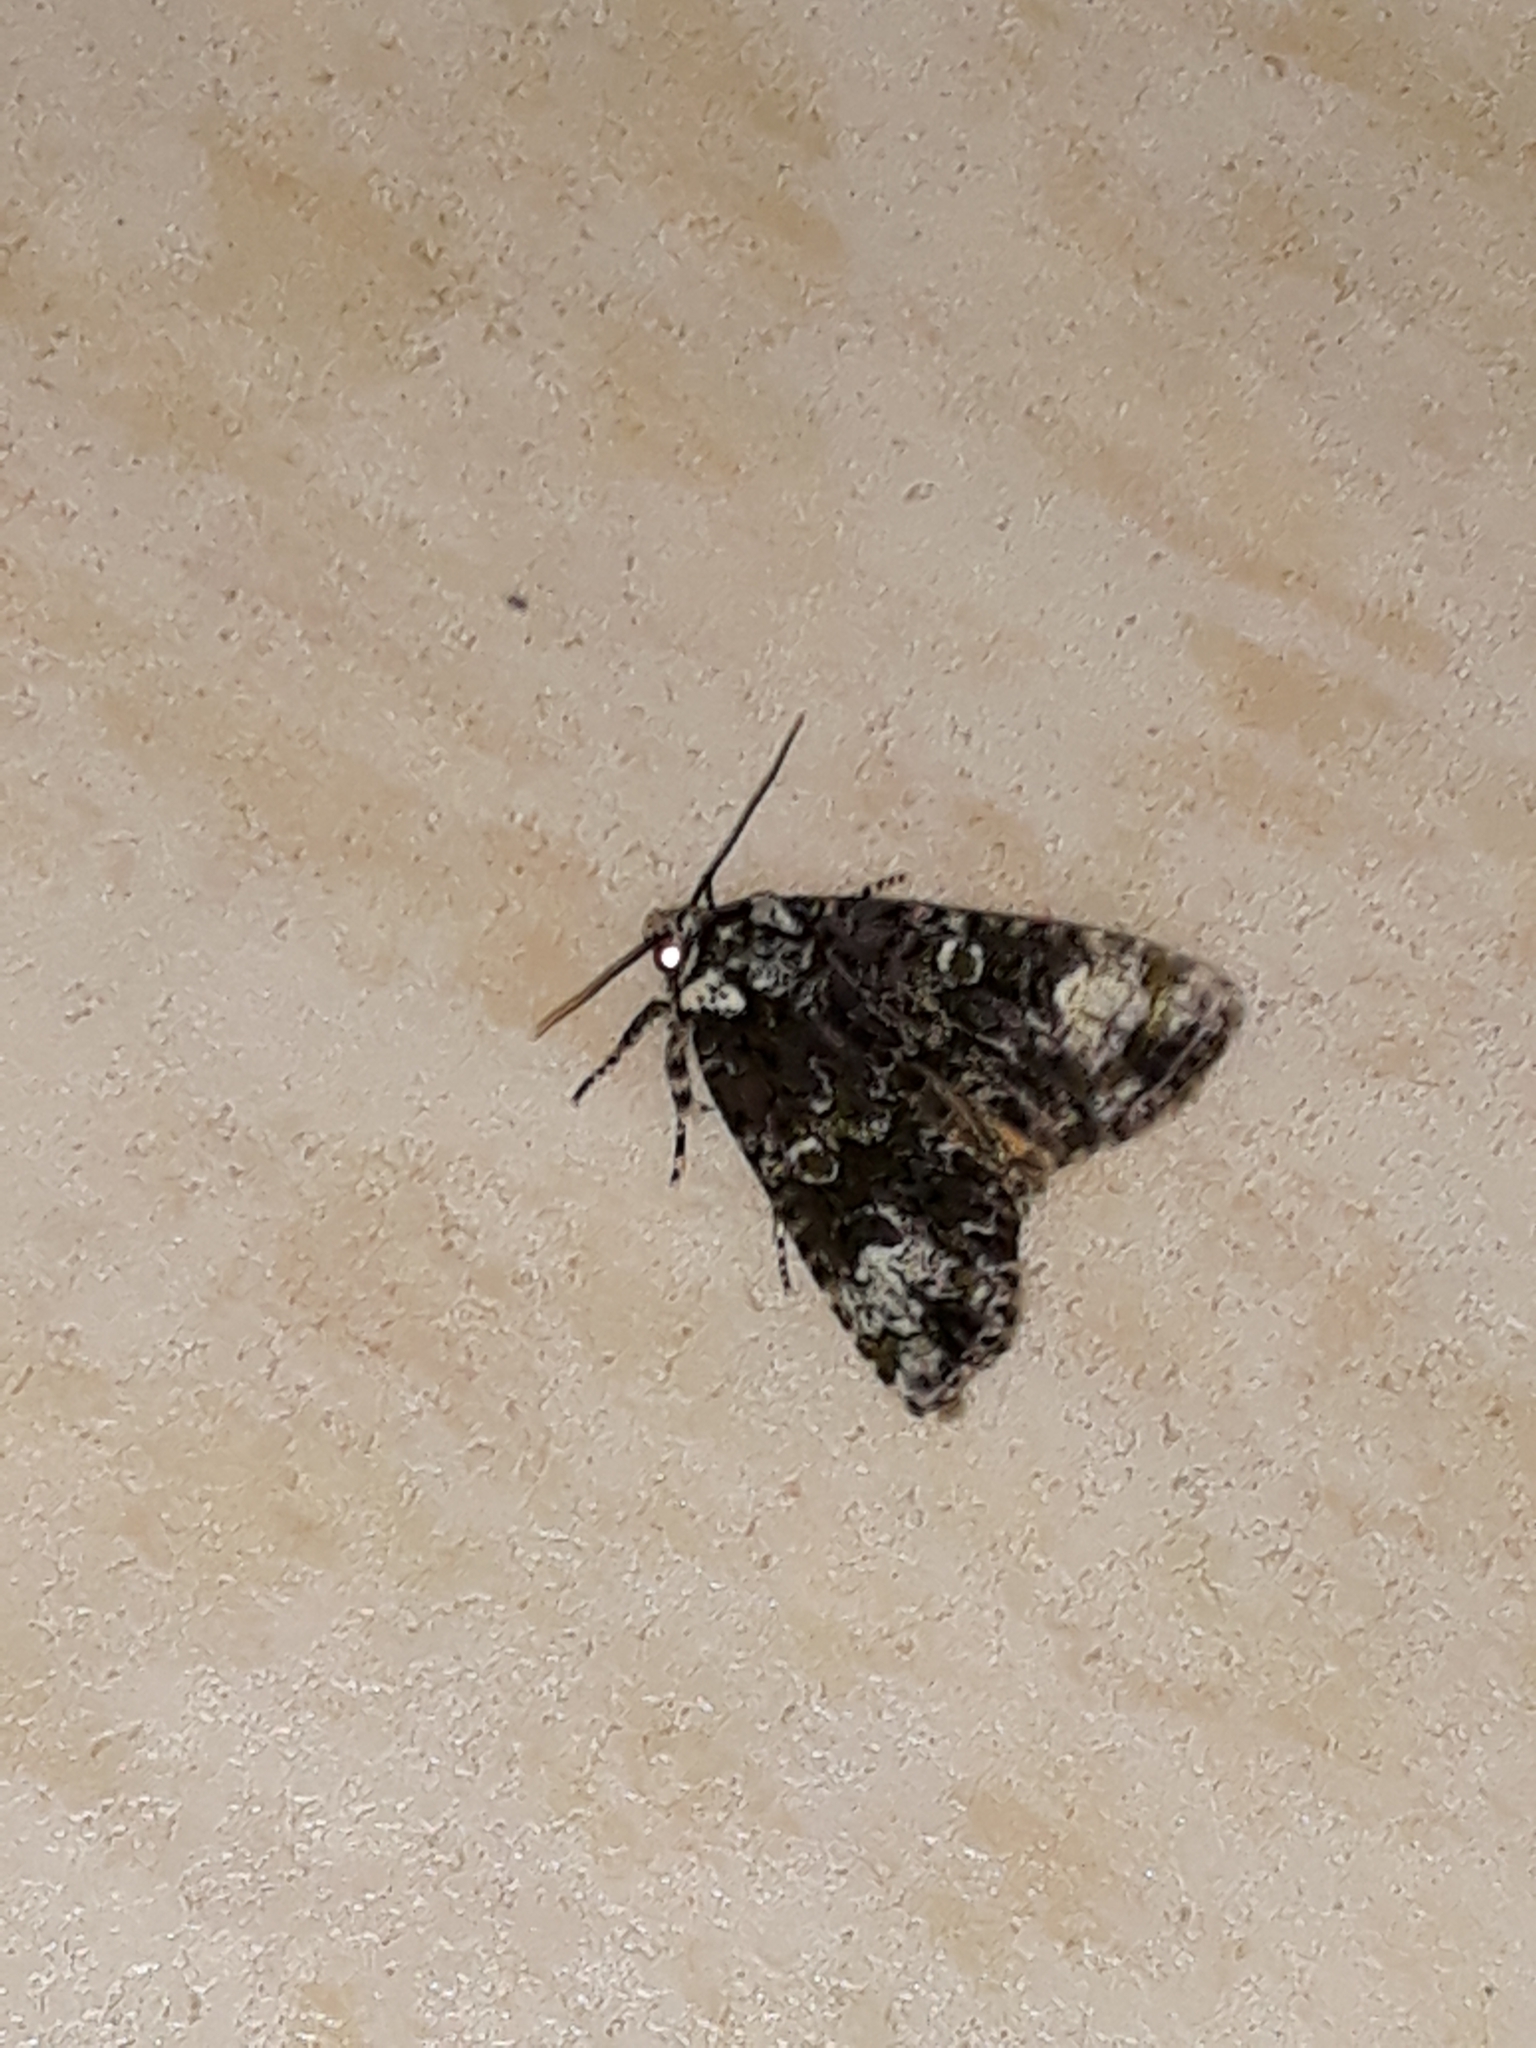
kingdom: Animalia
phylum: Arthropoda
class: Insecta
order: Lepidoptera
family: Noctuidae
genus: Craniophora
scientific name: Craniophora ligustri
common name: Coronet
